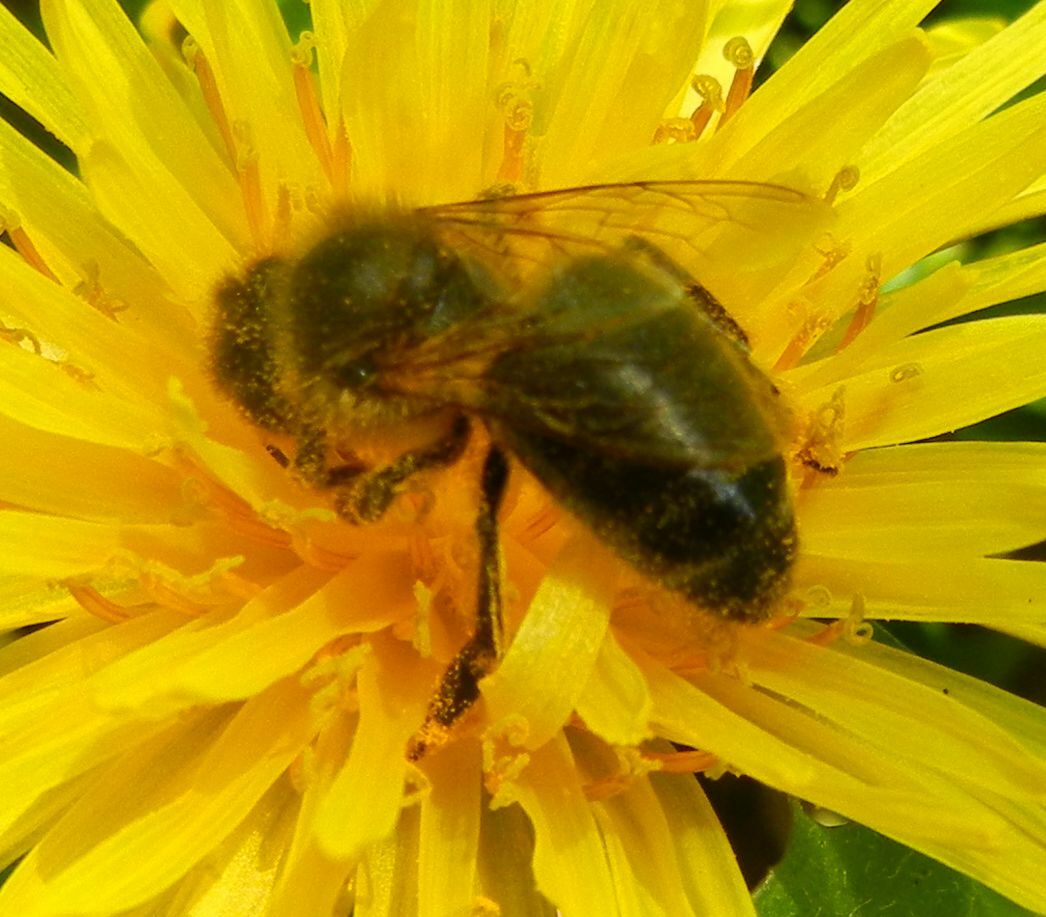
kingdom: Animalia
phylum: Arthropoda
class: Insecta
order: Hymenoptera
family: Apidae
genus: Apis
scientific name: Apis mellifera
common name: Honey bee
